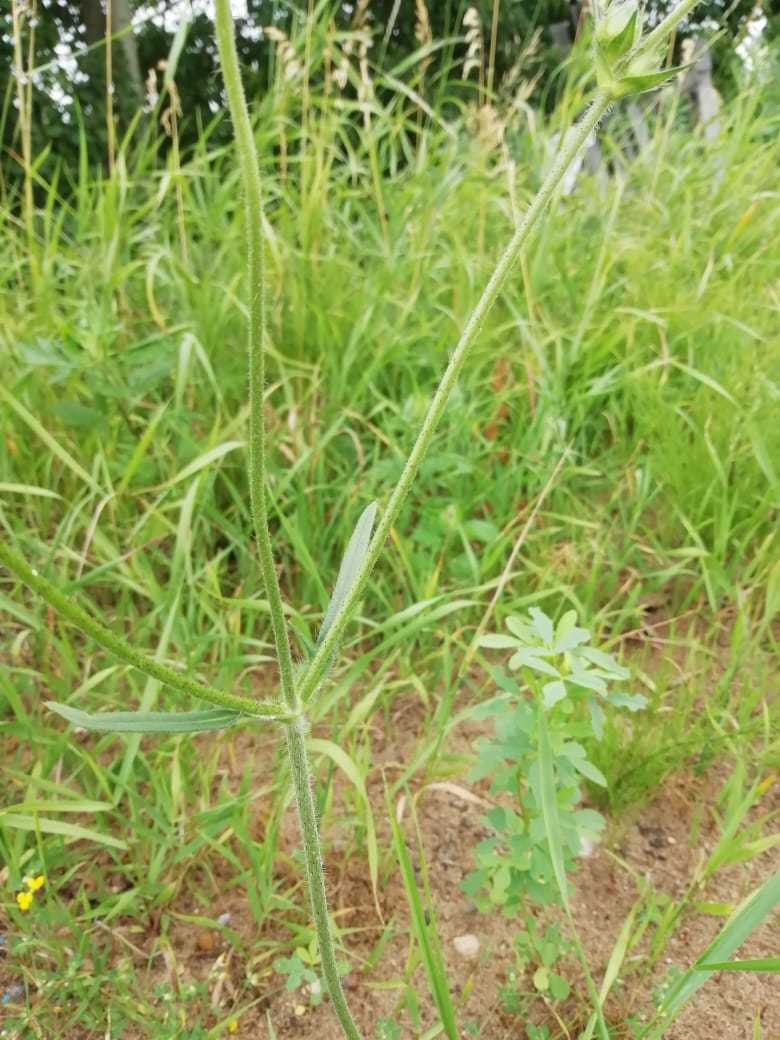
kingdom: Plantae
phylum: Tracheophyta
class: Magnoliopsida
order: Dipsacales
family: Caprifoliaceae
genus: Knautia
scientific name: Knautia arvensis
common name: Field scabiosa
